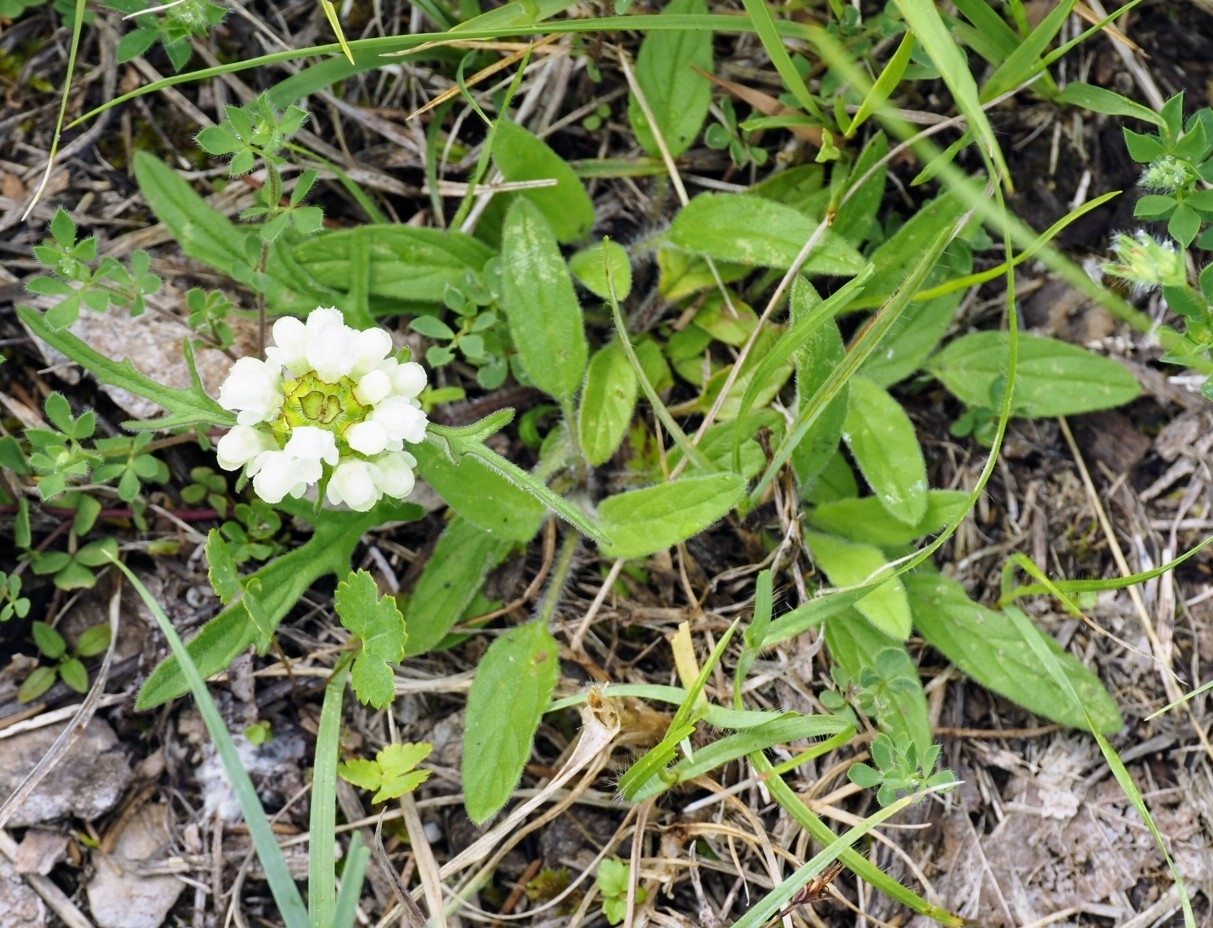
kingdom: Plantae
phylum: Tracheophyta
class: Magnoliopsida
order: Lamiales
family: Lamiaceae
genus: Prunella
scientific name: Prunella laciniata
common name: Cut-leaved selfheal
